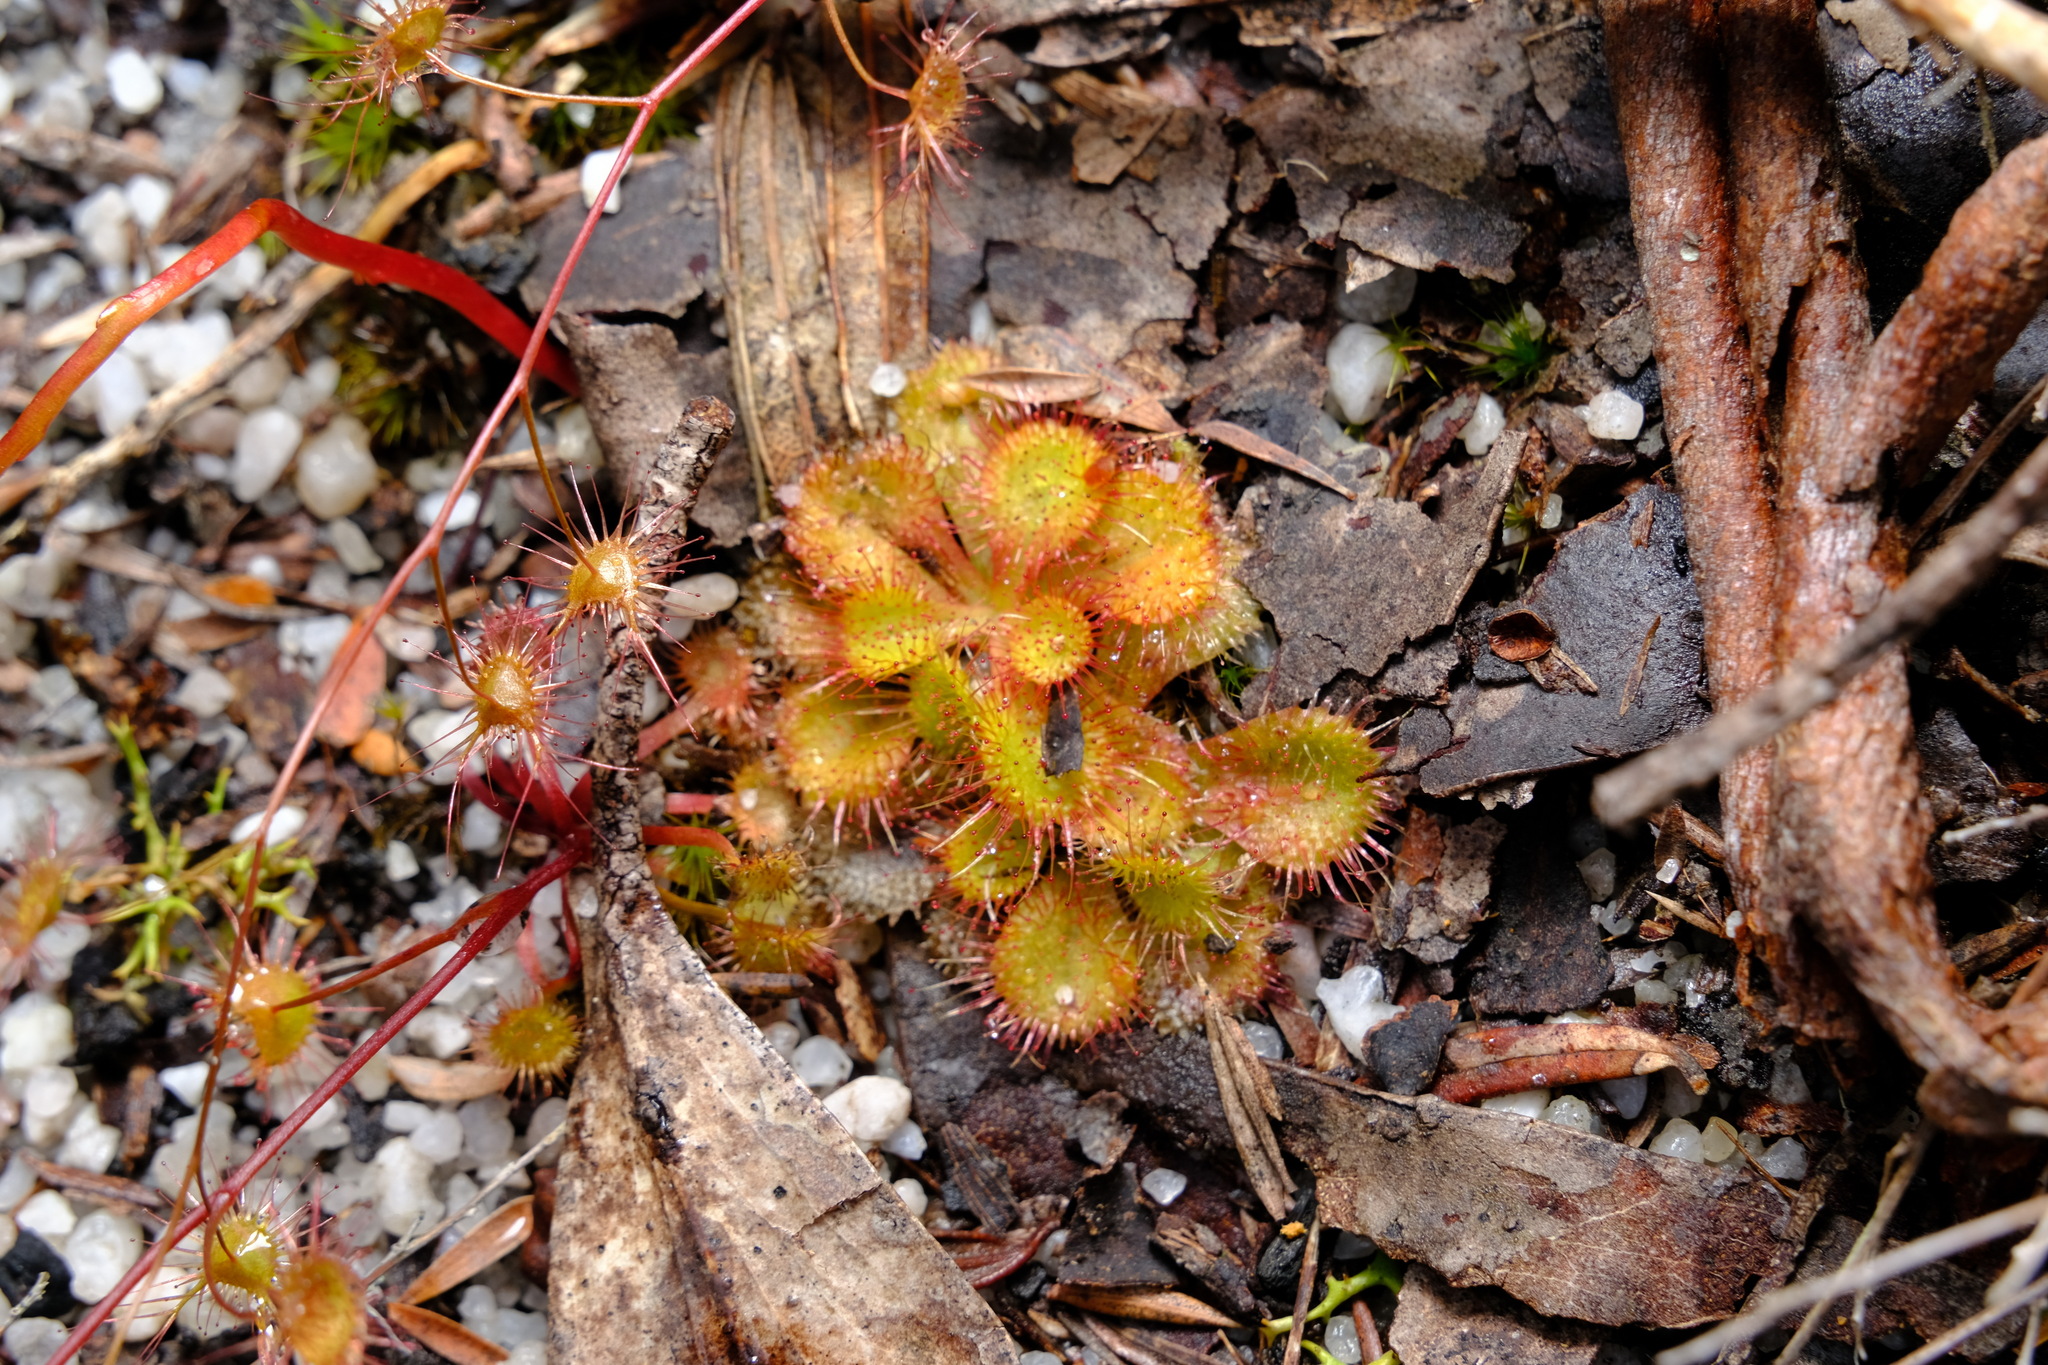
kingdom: Plantae
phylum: Tracheophyta
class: Magnoliopsida
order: Caryophyllales
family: Droseraceae
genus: Drosera
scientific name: Drosera aberrans
